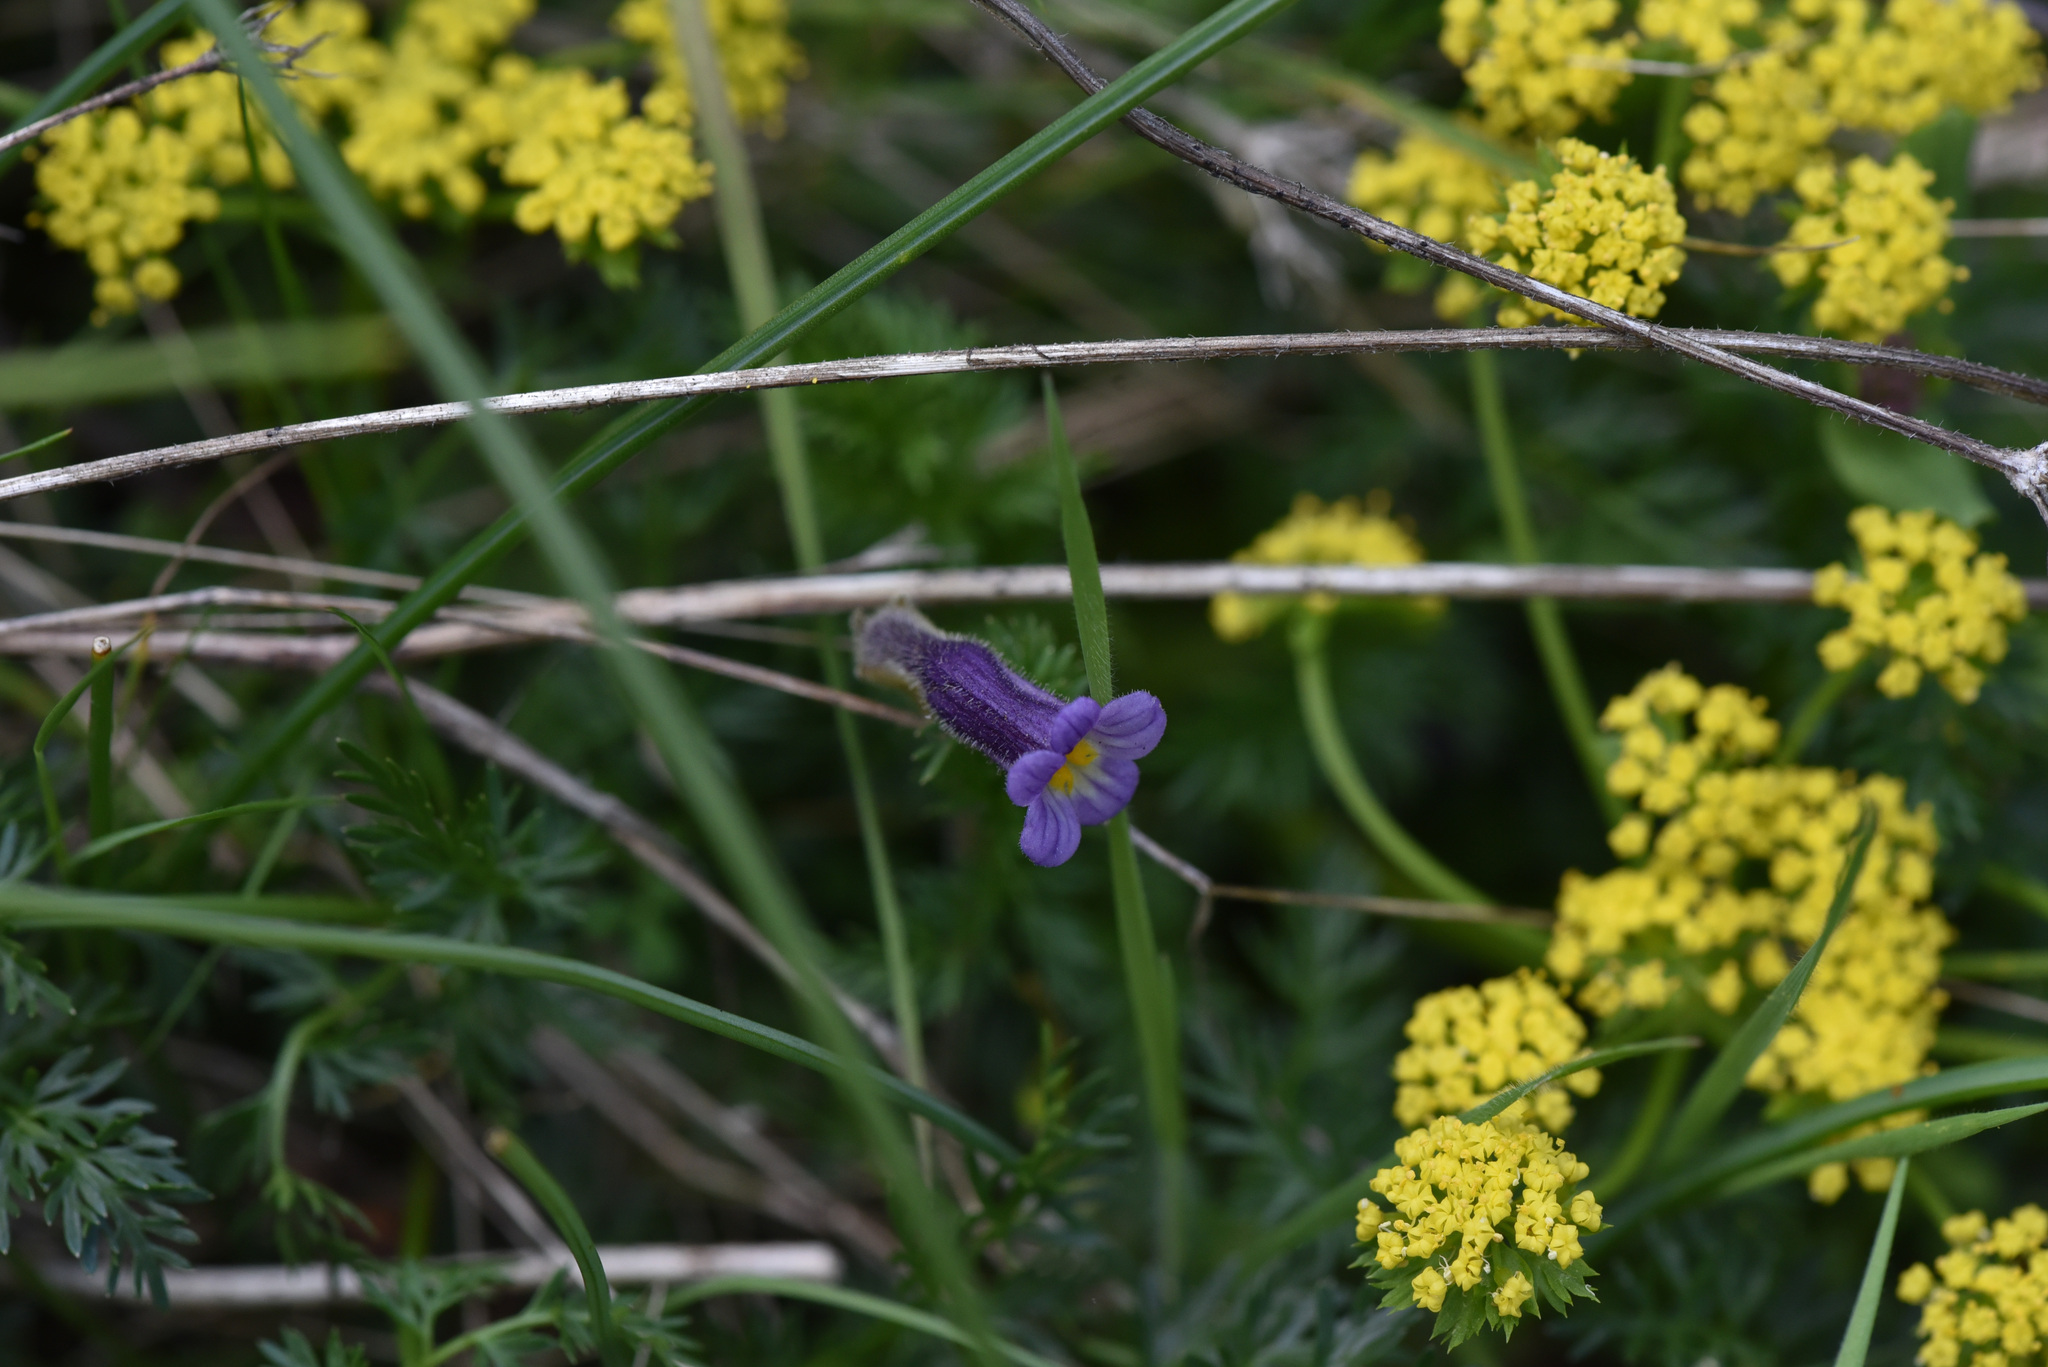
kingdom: Plantae
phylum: Tracheophyta
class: Magnoliopsida
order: Lamiales
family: Orobanchaceae
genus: Aphyllon
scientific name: Aphyllon uniflorum
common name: One-flowered broomrape
